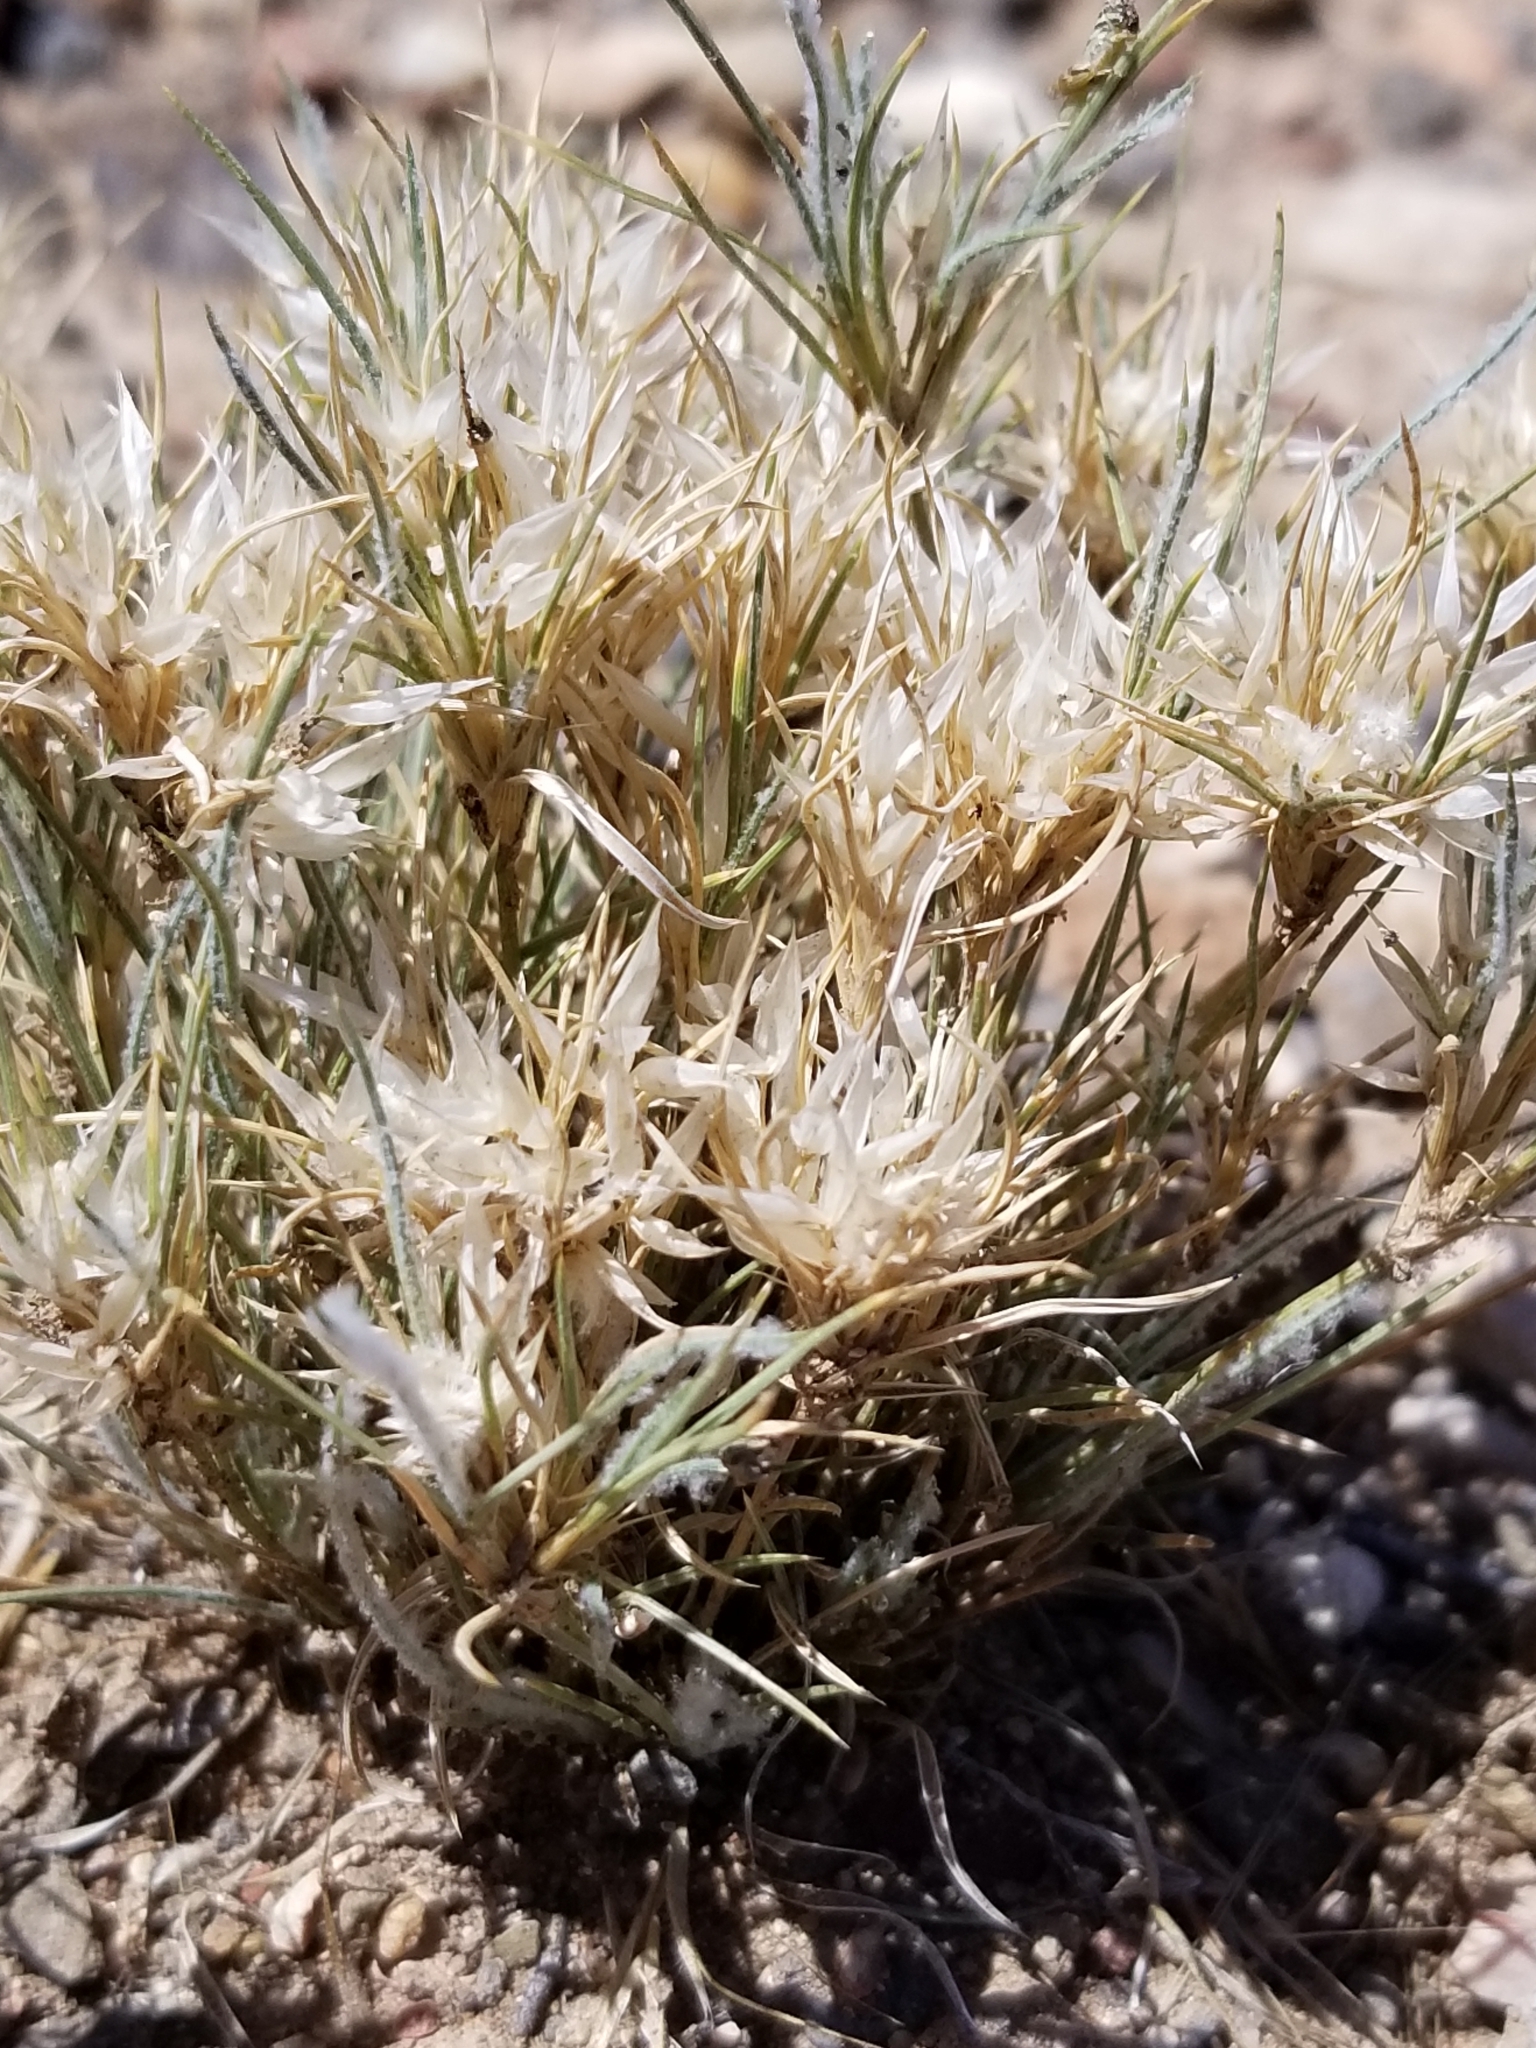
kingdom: Plantae
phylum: Tracheophyta
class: Liliopsida
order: Poales
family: Poaceae
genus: Dasyochloa
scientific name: Dasyochloa pulchella
